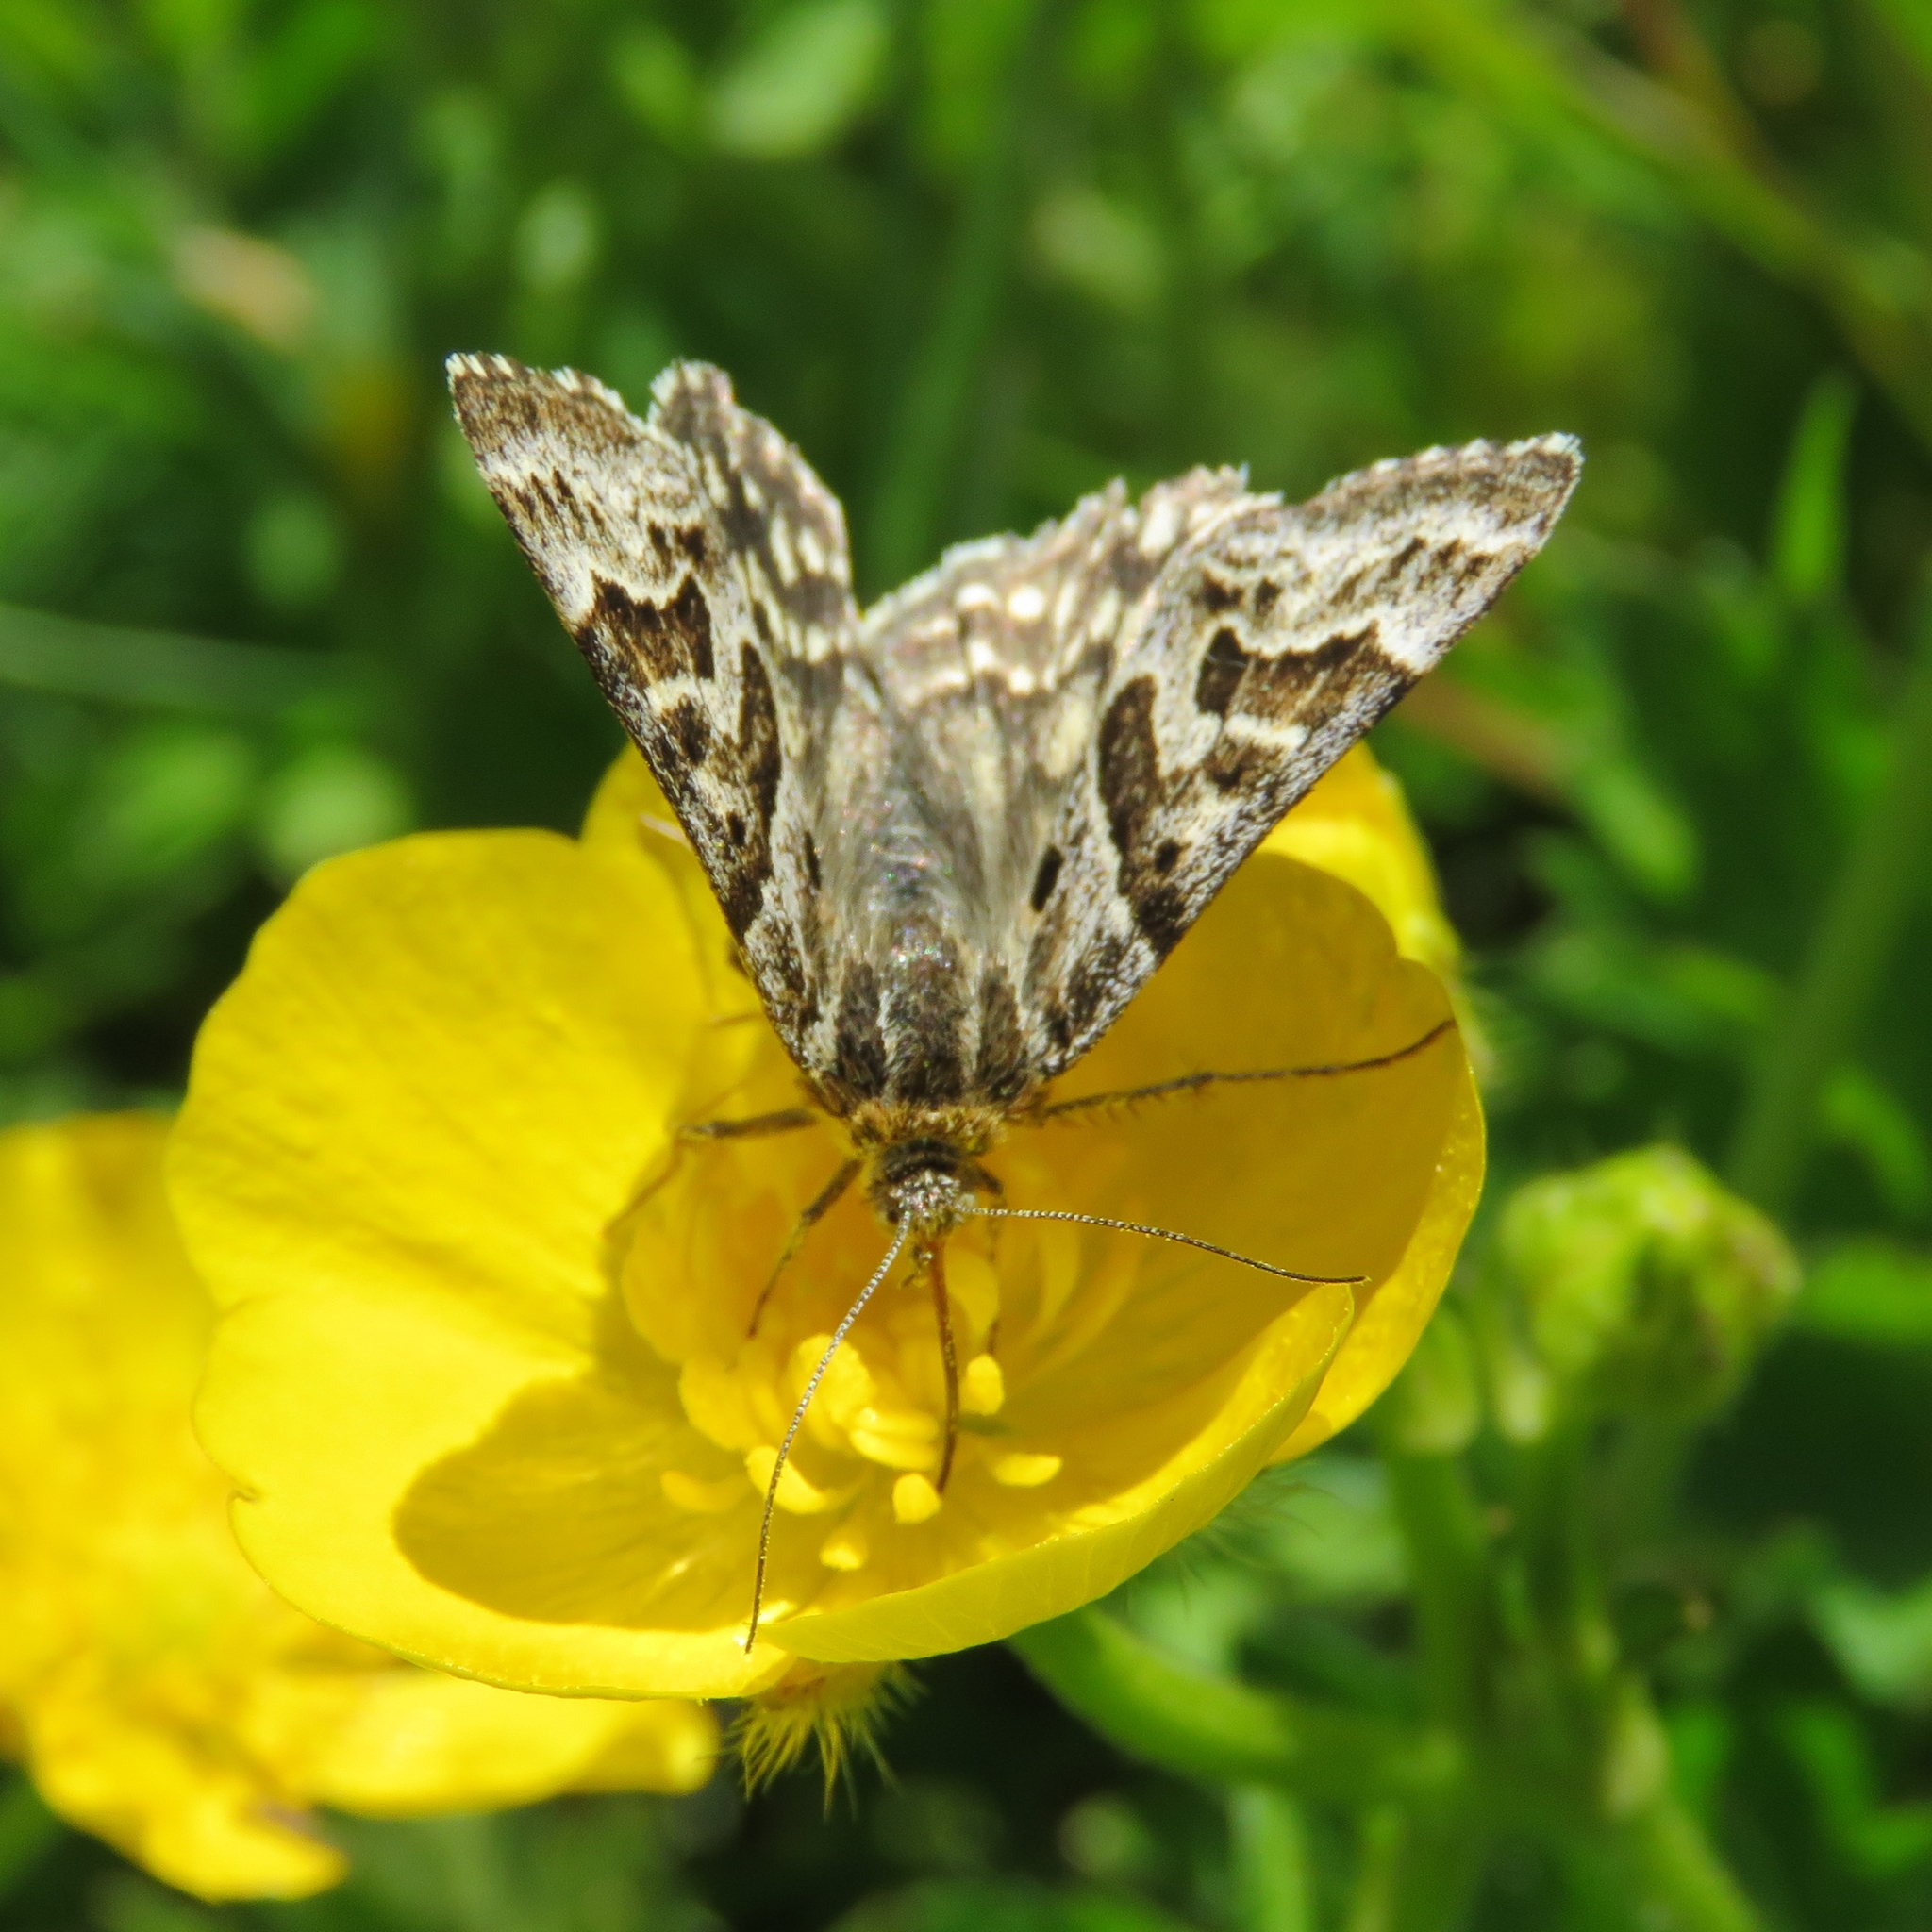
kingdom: Animalia
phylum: Arthropoda
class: Insecta
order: Lepidoptera
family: Erebidae
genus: Callistege
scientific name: Callistege mi
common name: Mother shipton
